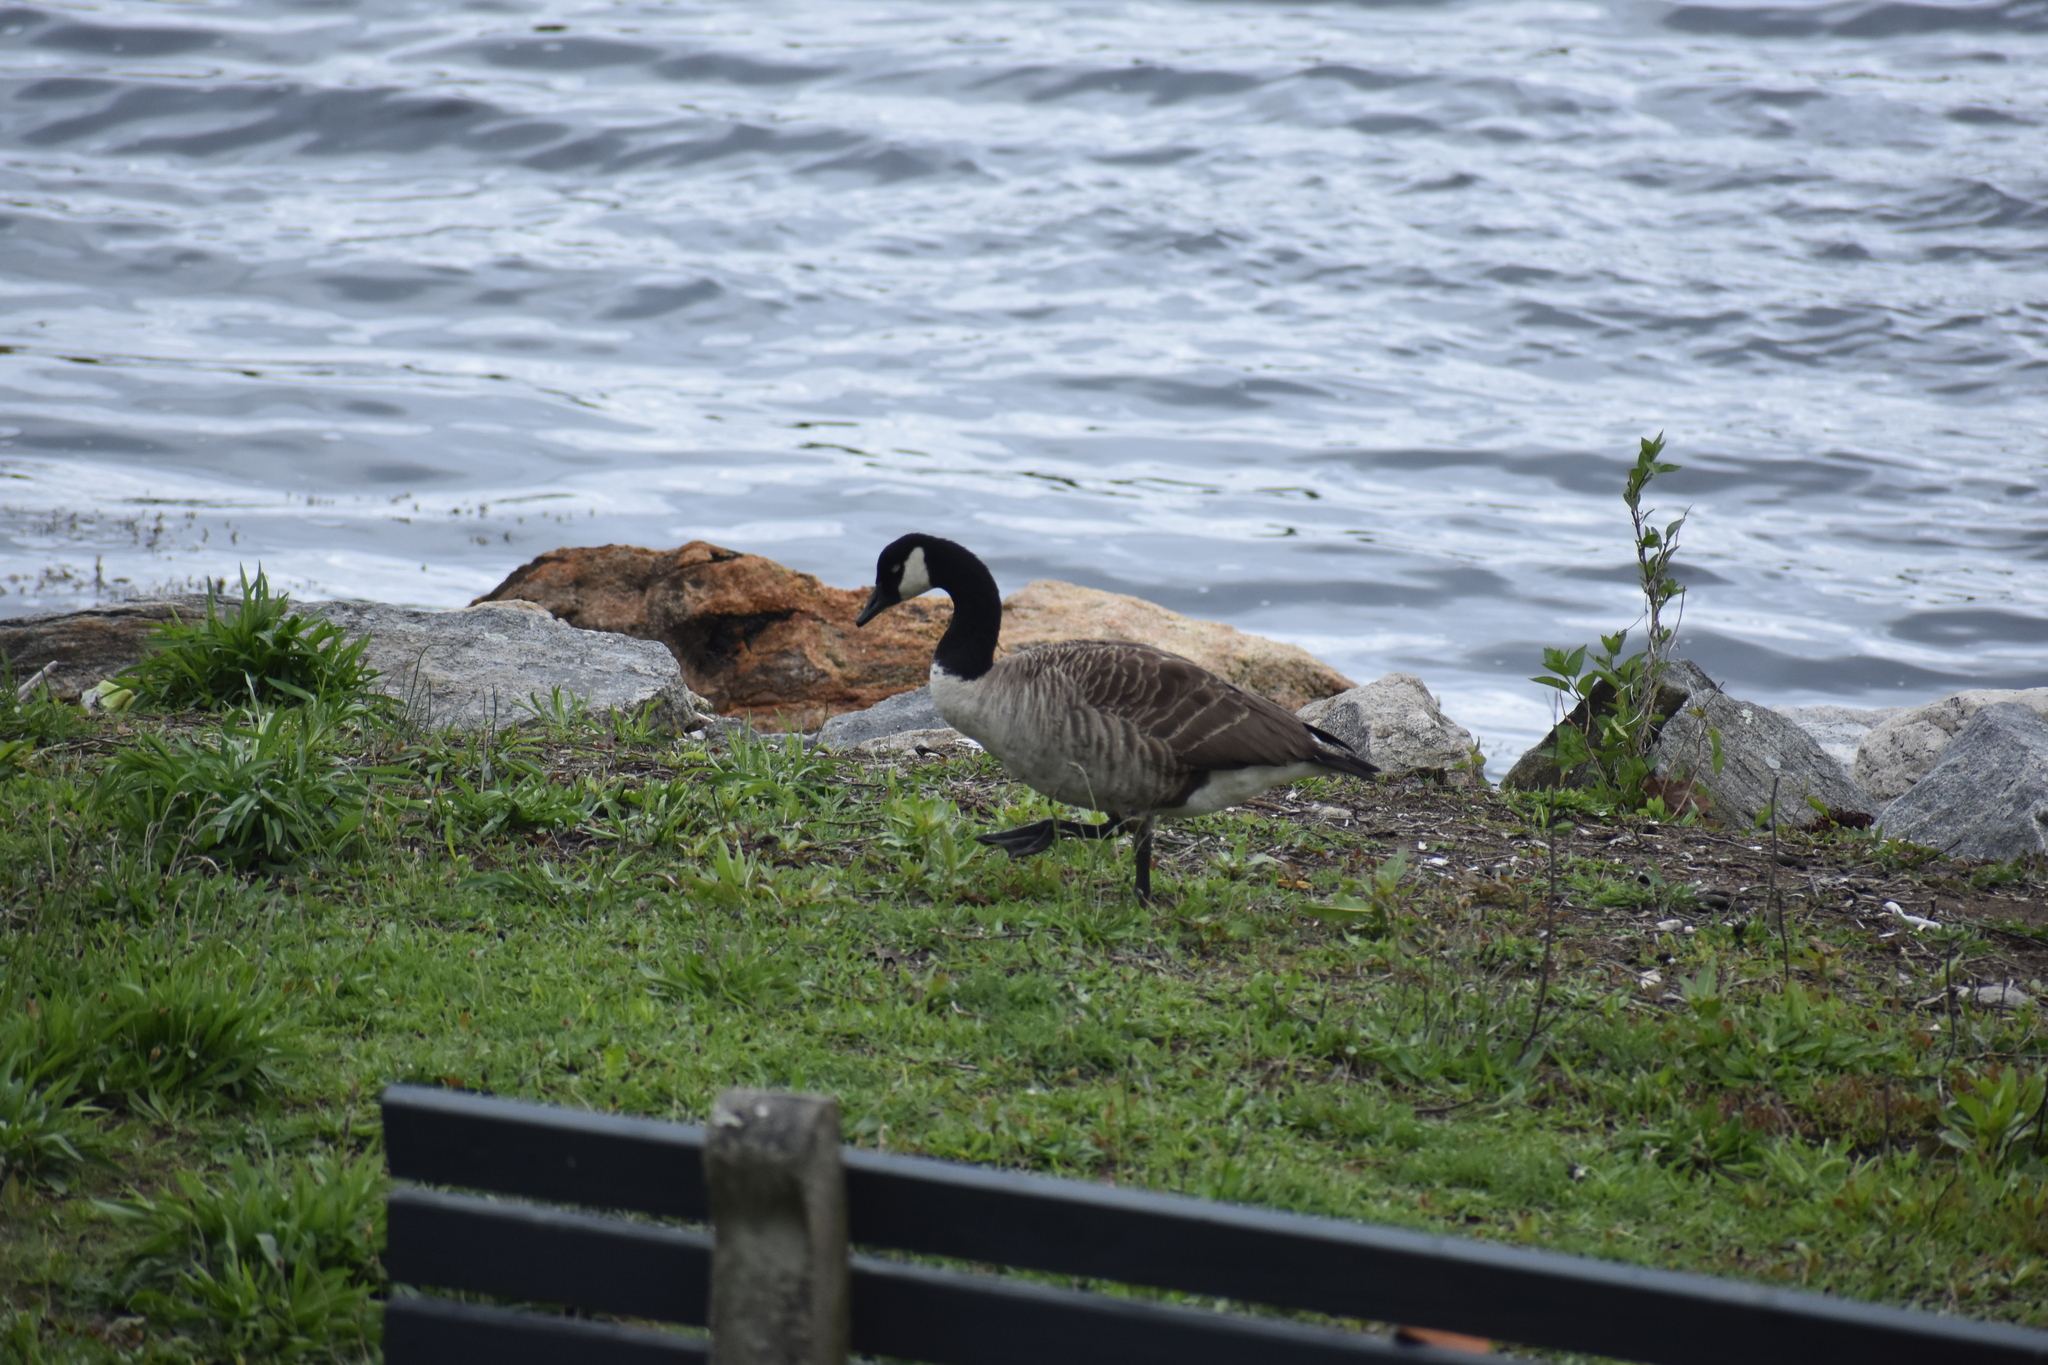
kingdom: Animalia
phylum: Chordata
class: Aves
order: Anseriformes
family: Anatidae
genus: Branta
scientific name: Branta canadensis
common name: Canada goose
